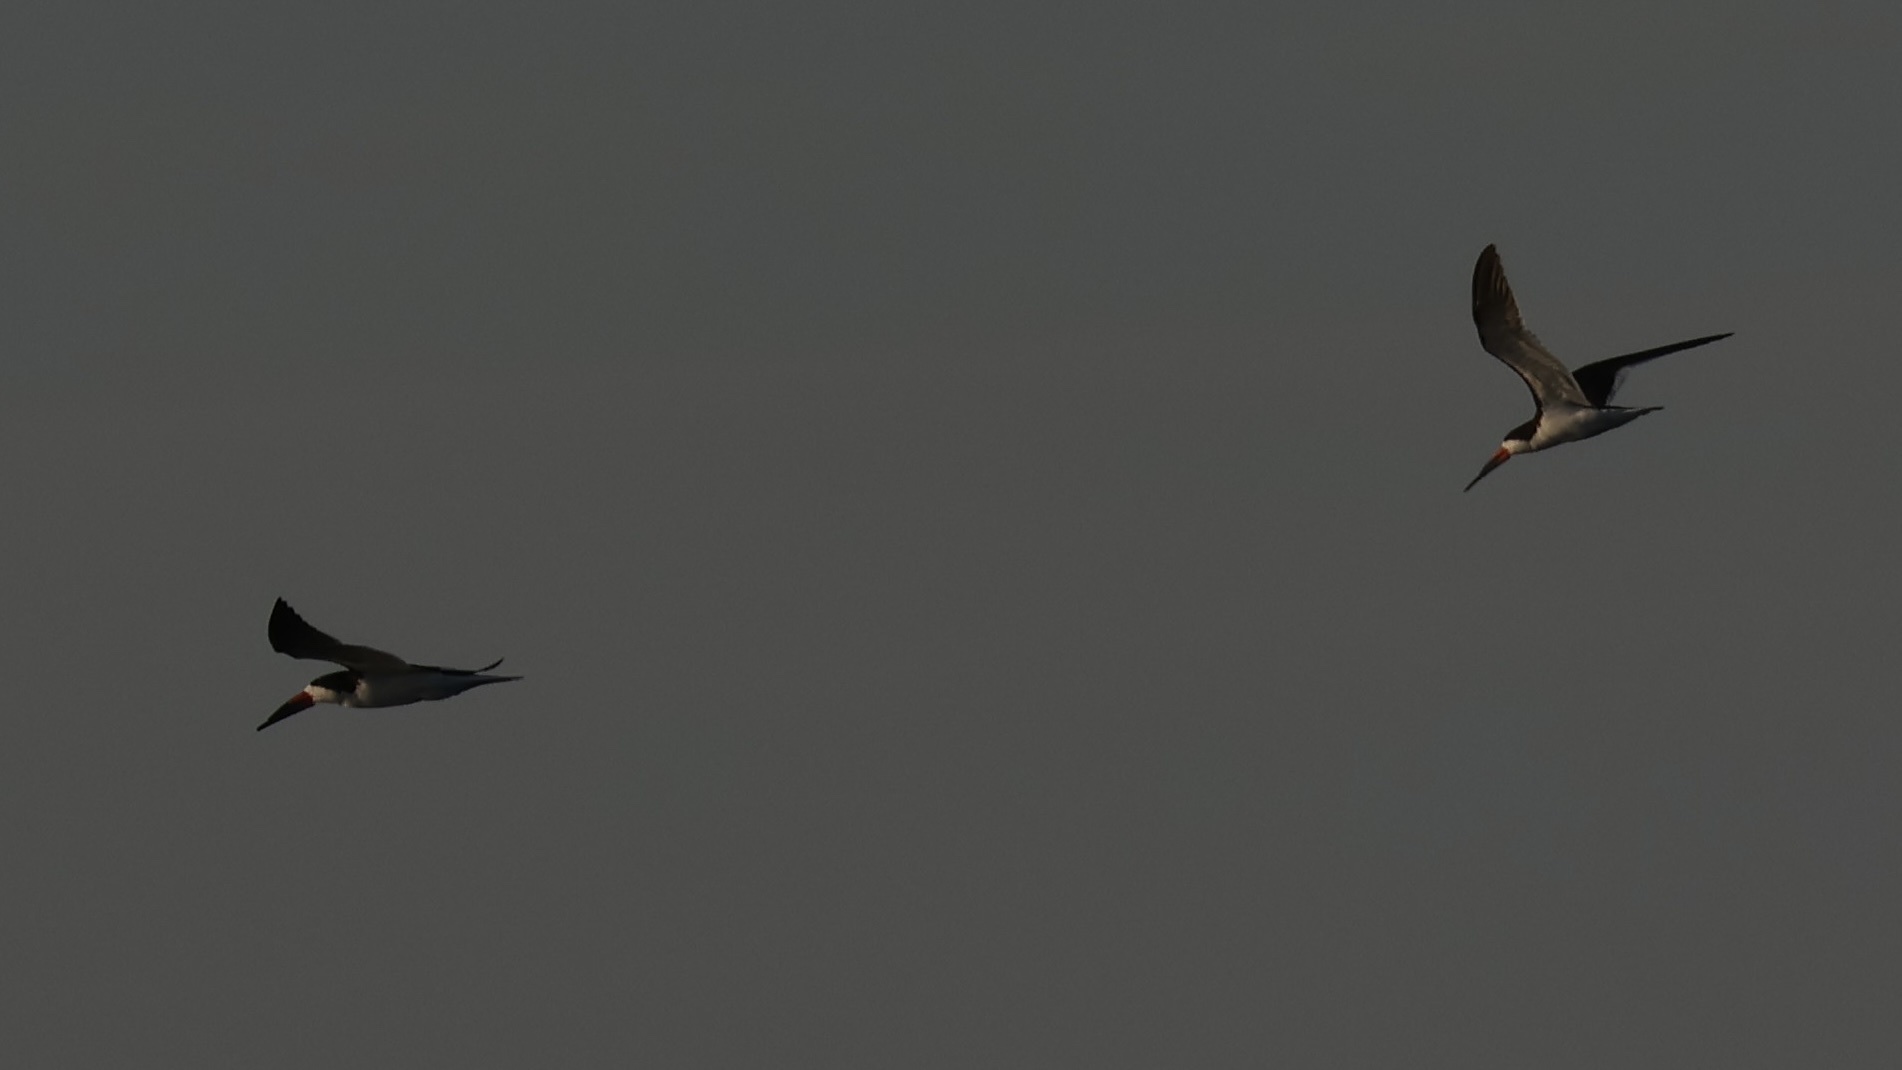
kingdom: Animalia
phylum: Chordata
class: Aves
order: Charadriiformes
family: Laridae
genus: Rynchops
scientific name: Rynchops niger
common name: Black skimmer
